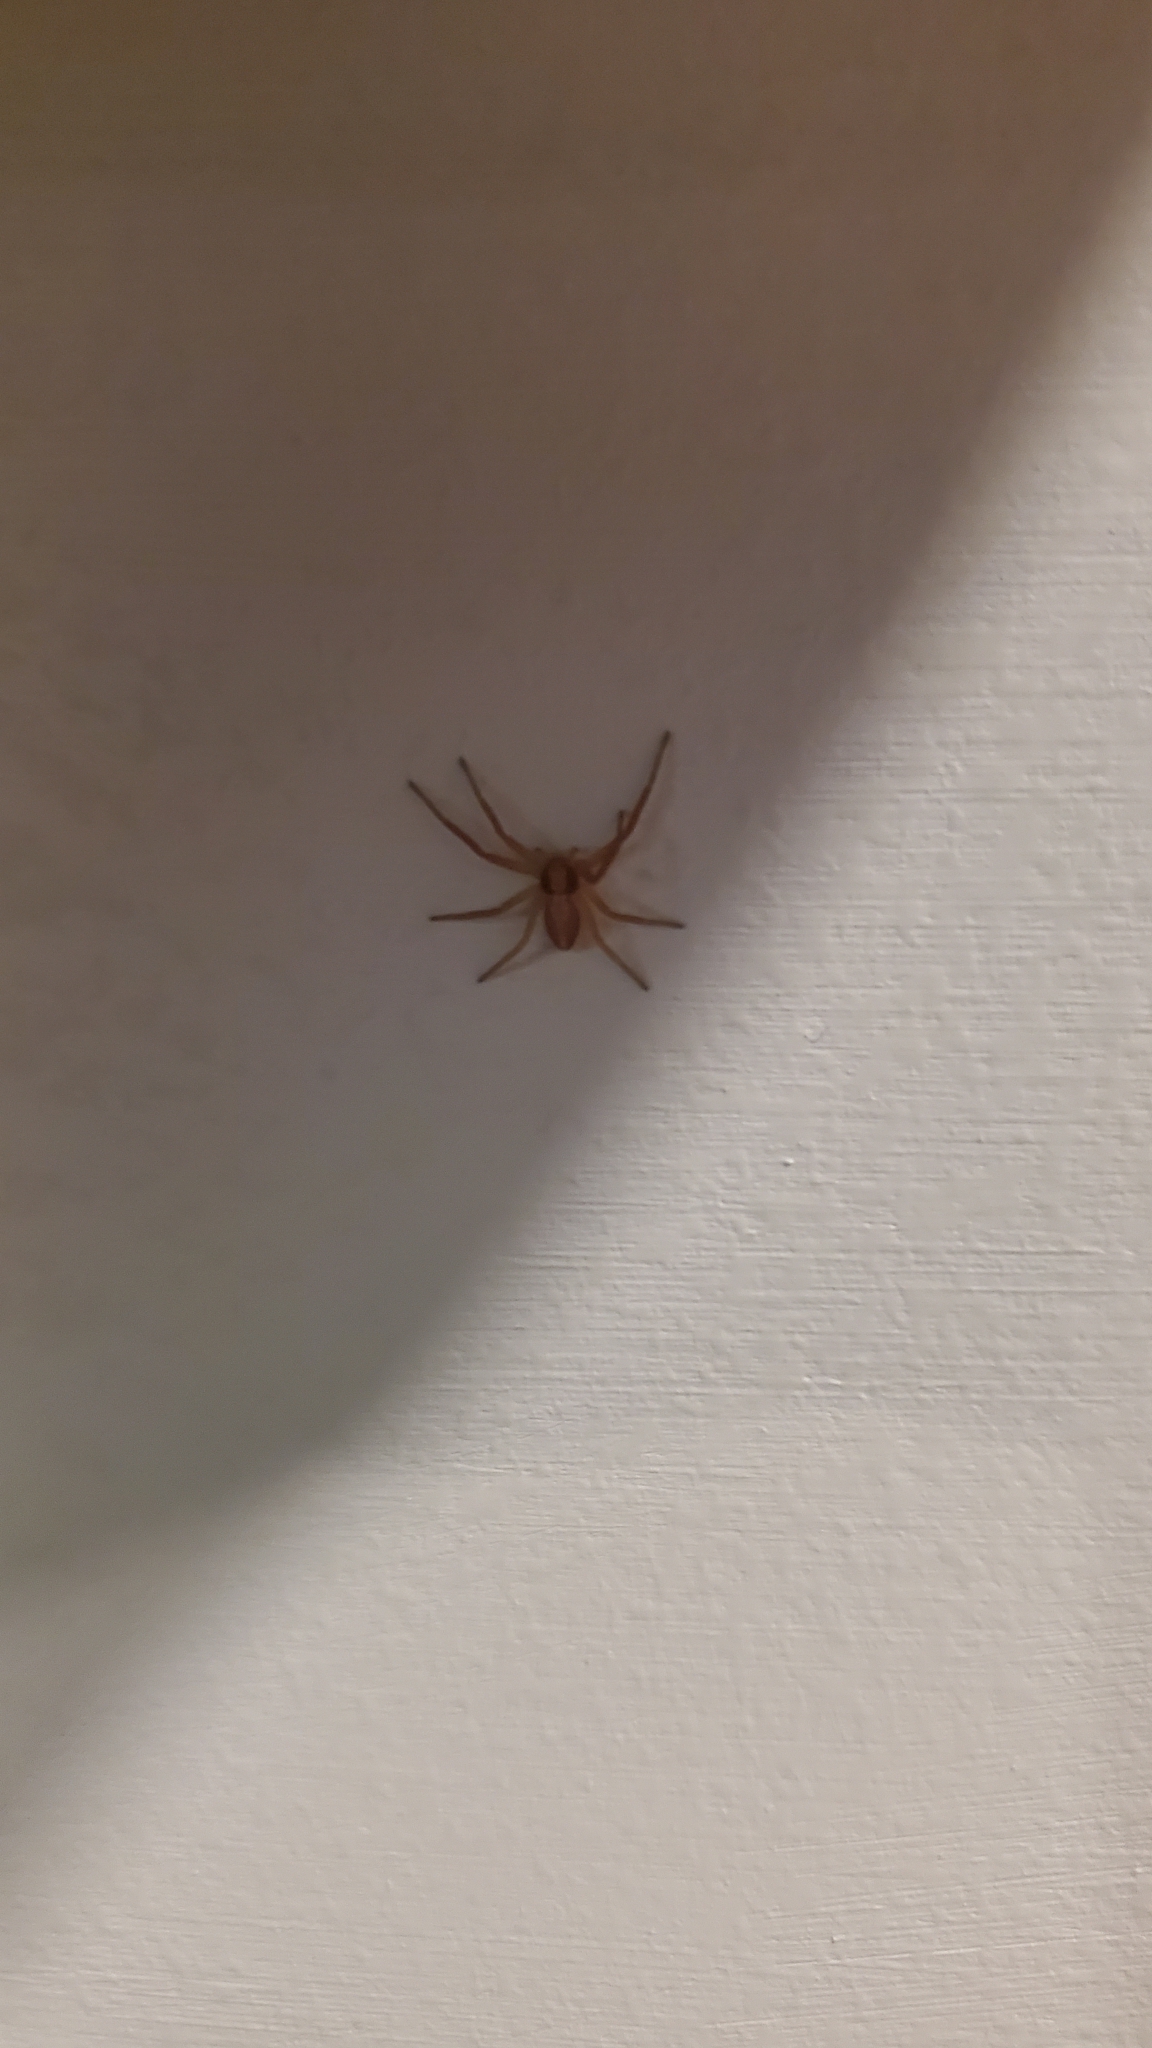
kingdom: Animalia
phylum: Arthropoda
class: Arachnida
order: Araneae
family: Philodromidae
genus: Philodromus
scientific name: Philodromus rufus
